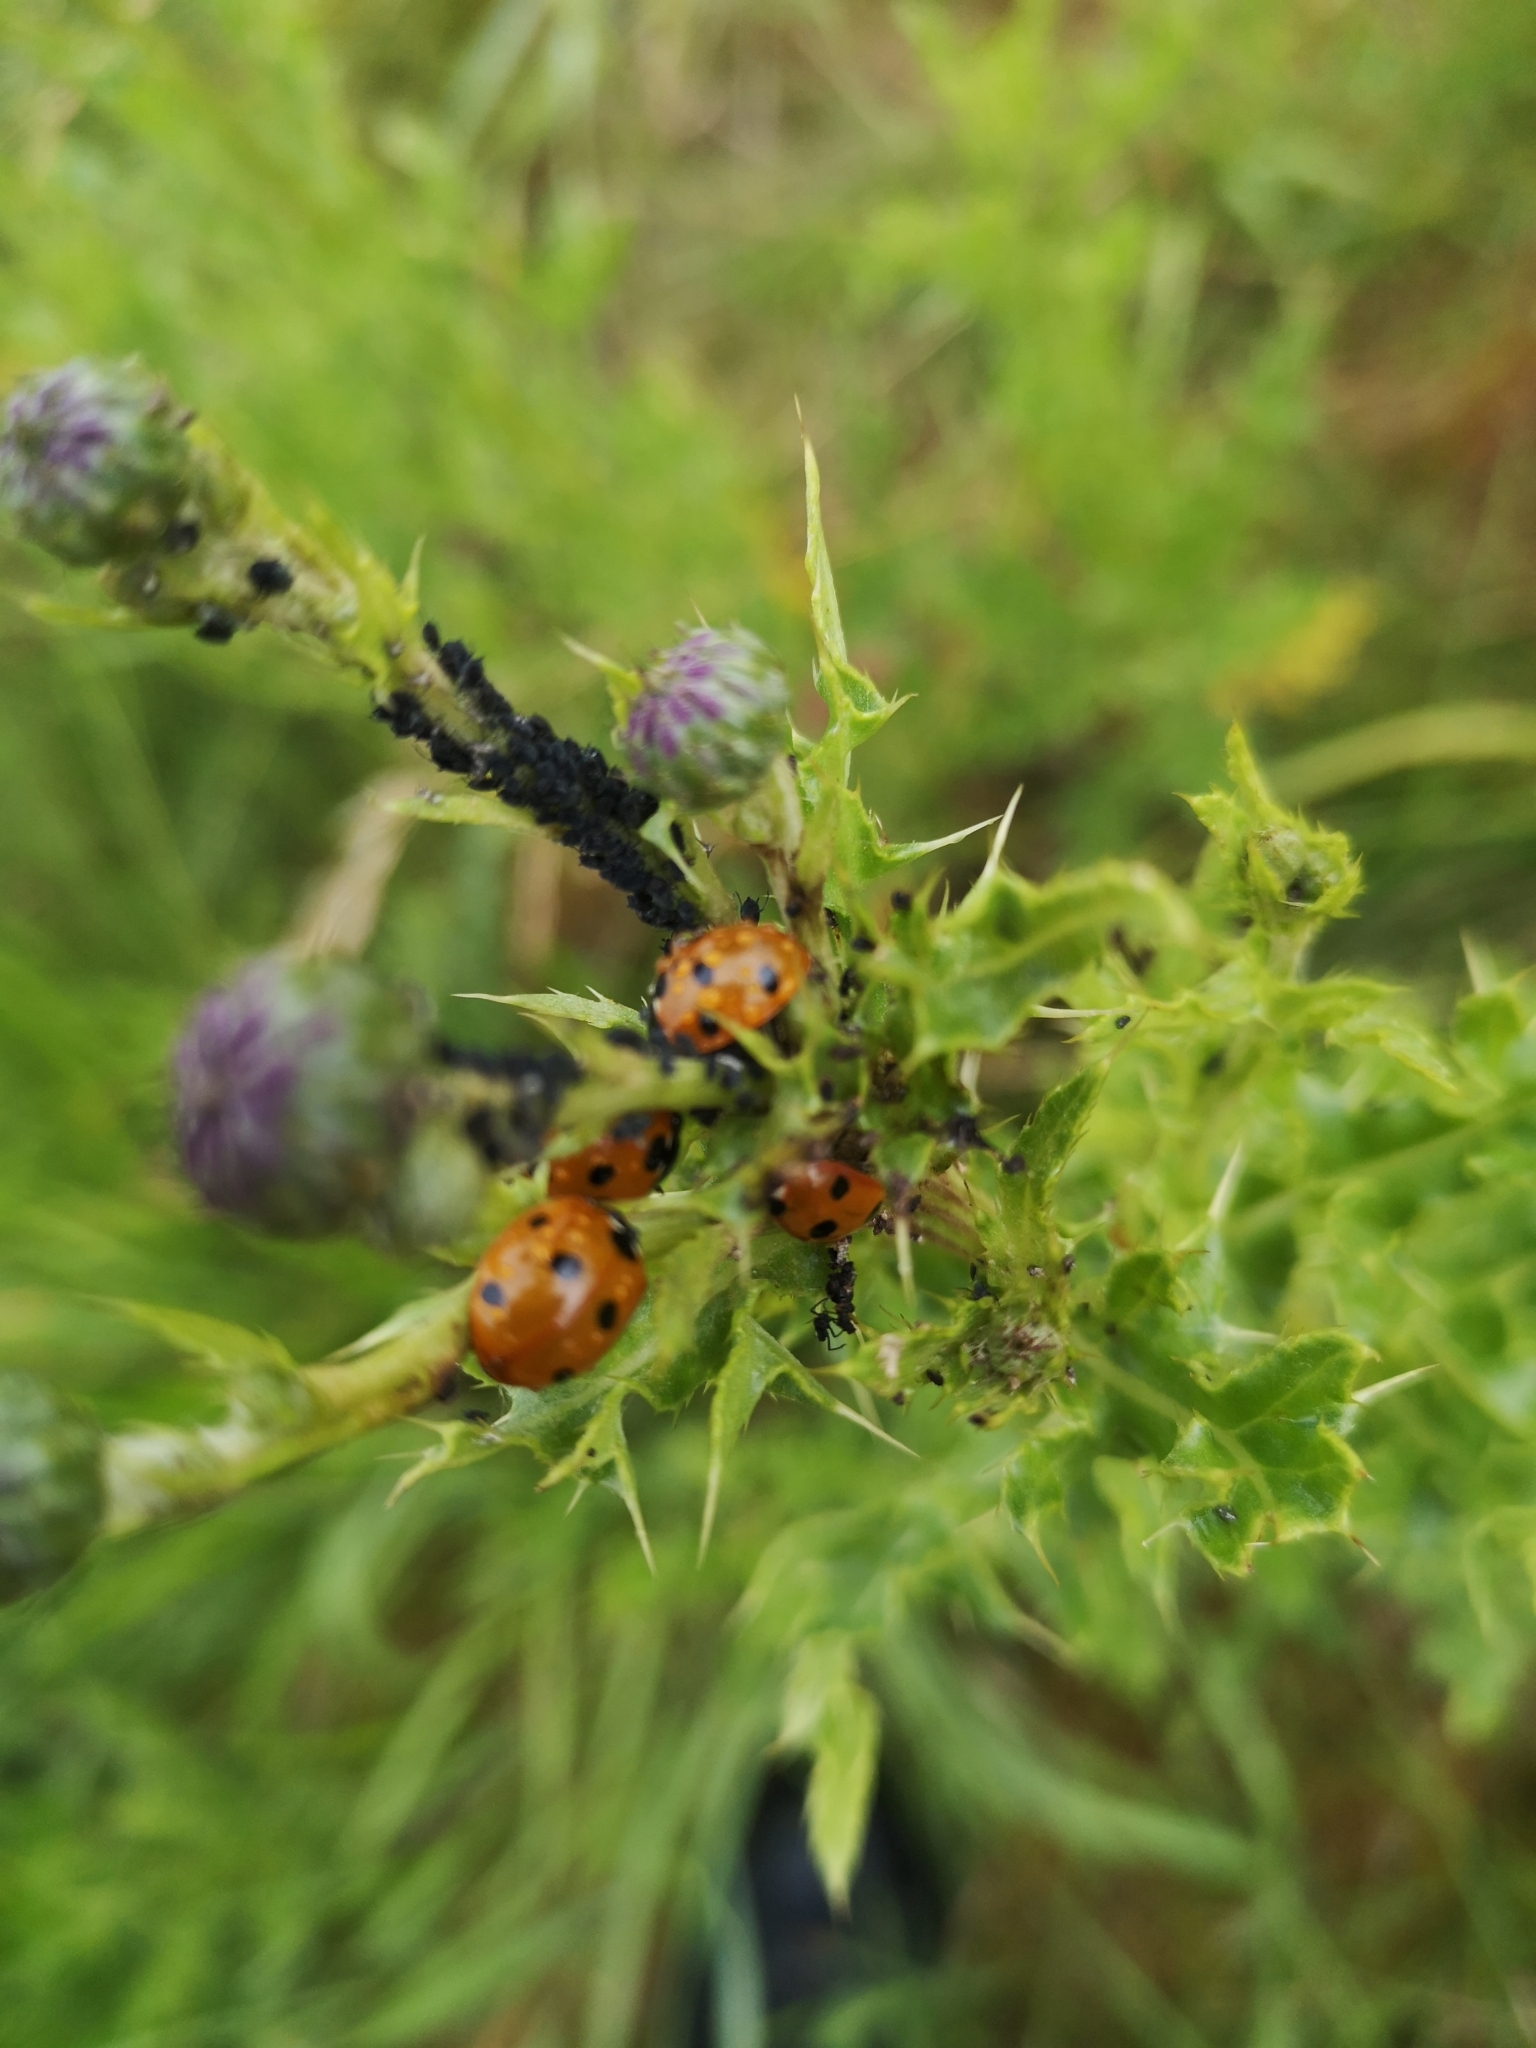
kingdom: Animalia
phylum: Arthropoda
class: Insecta
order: Coleoptera
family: Coccinellidae
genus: Coccinella
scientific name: Coccinella septempunctata
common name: Sevenspotted lady beetle
